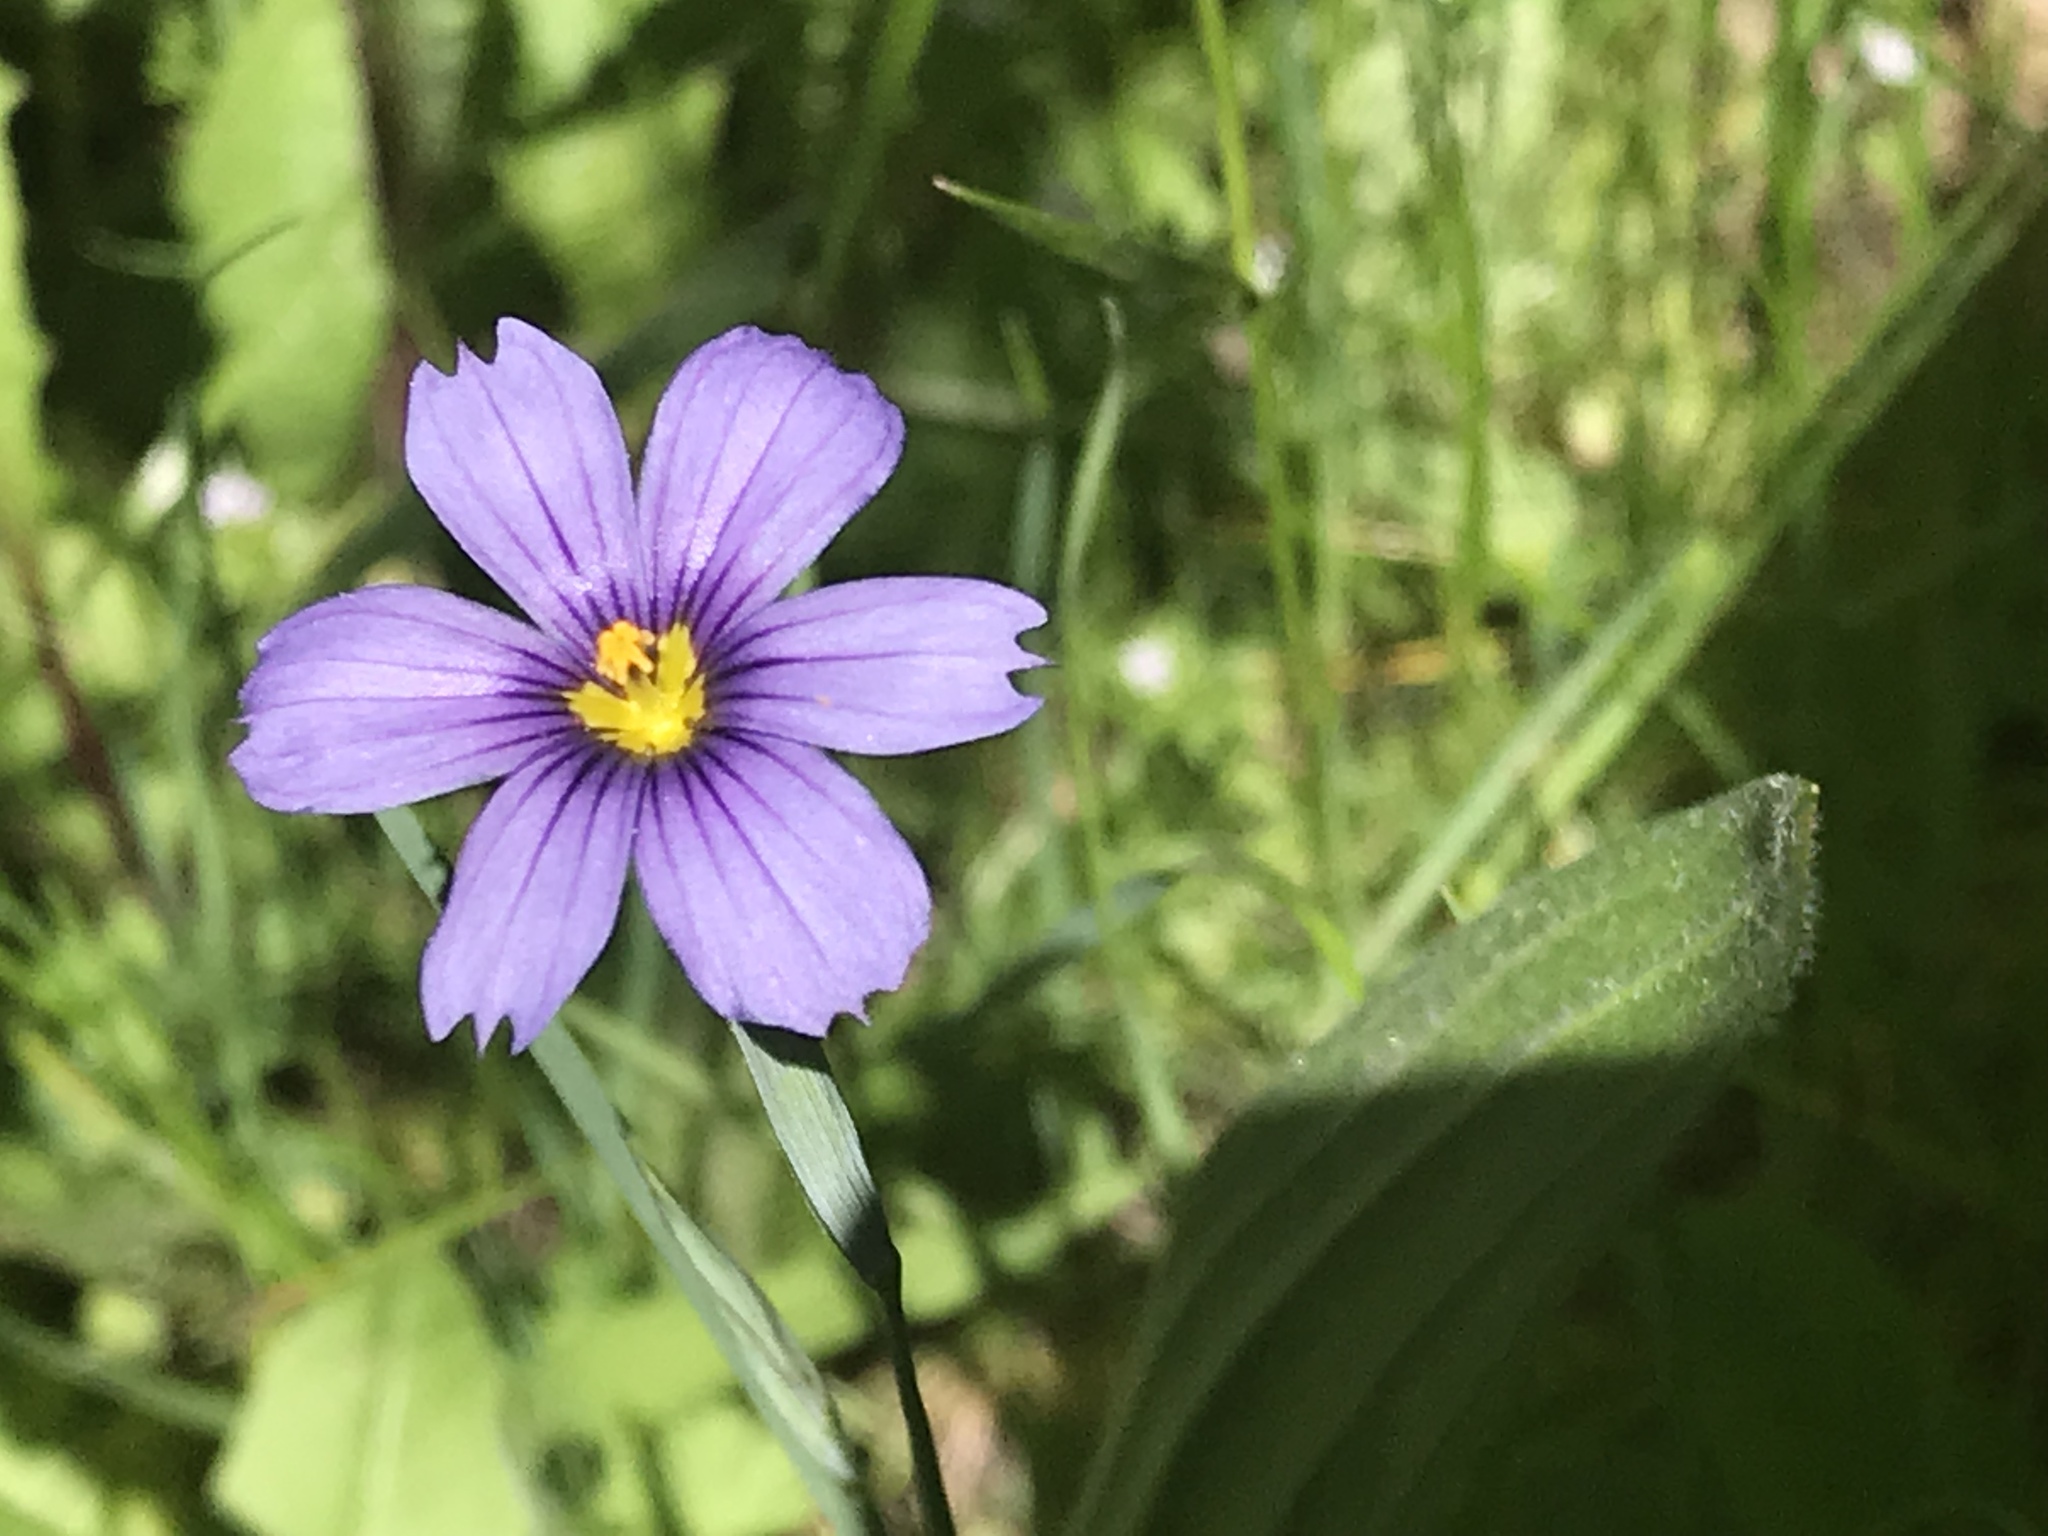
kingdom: Plantae
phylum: Tracheophyta
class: Liliopsida
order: Asparagales
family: Iridaceae
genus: Sisyrinchium
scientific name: Sisyrinchium bellum
